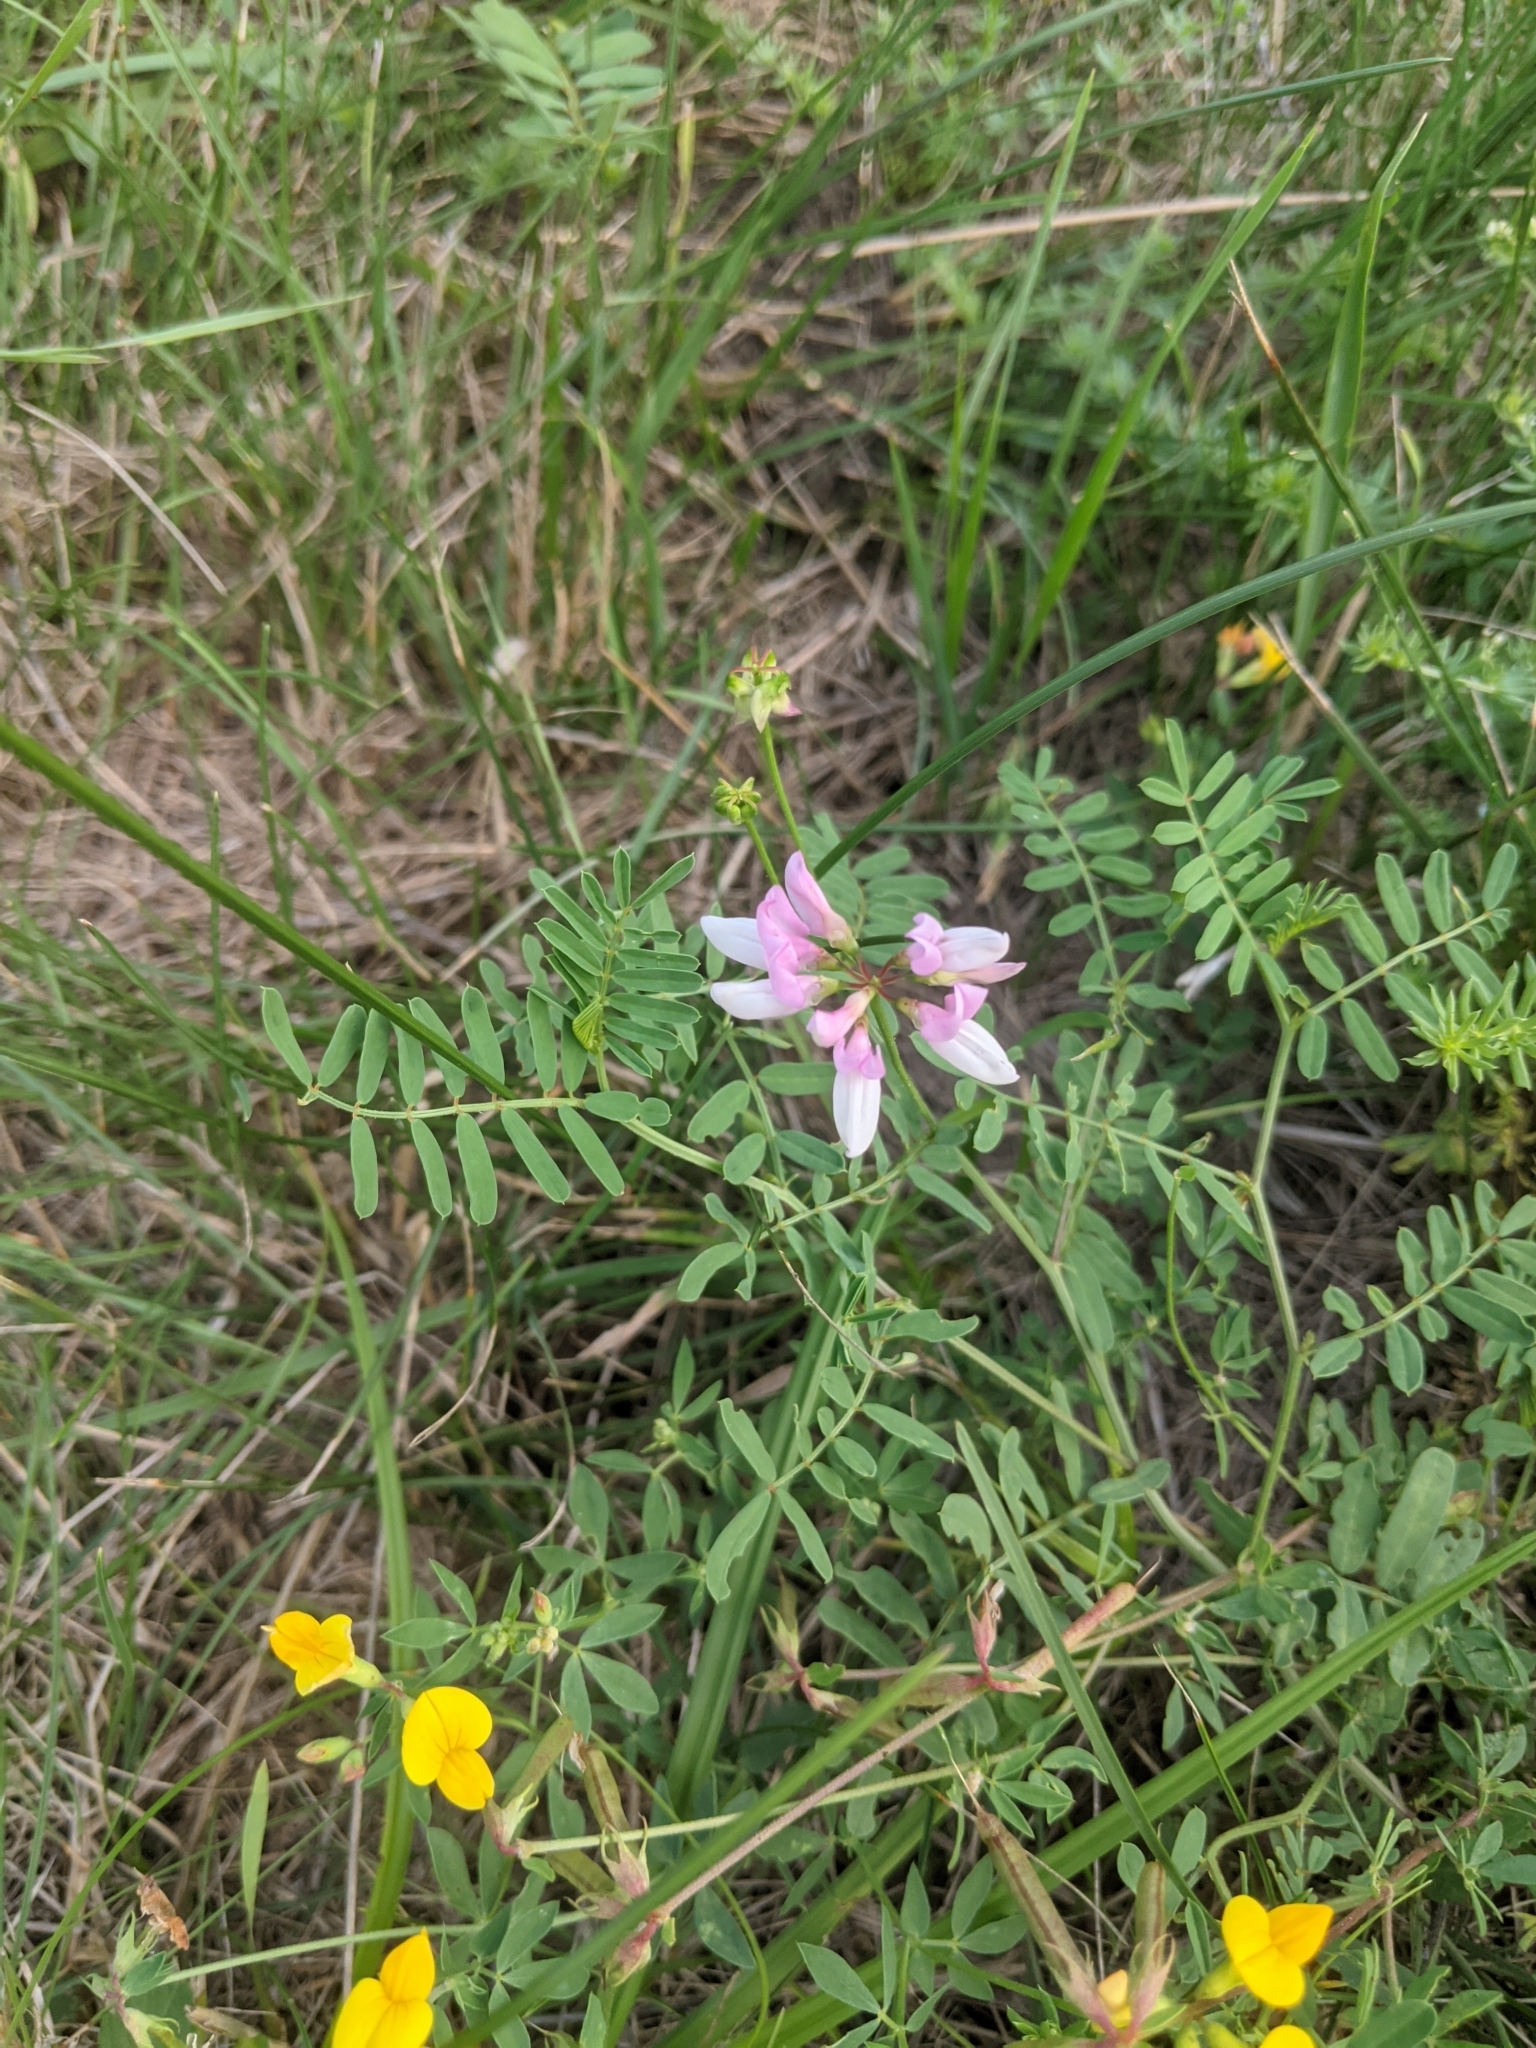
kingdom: Plantae
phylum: Tracheophyta
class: Magnoliopsida
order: Fabales
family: Fabaceae
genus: Coronilla
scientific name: Coronilla varia
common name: Crownvetch
